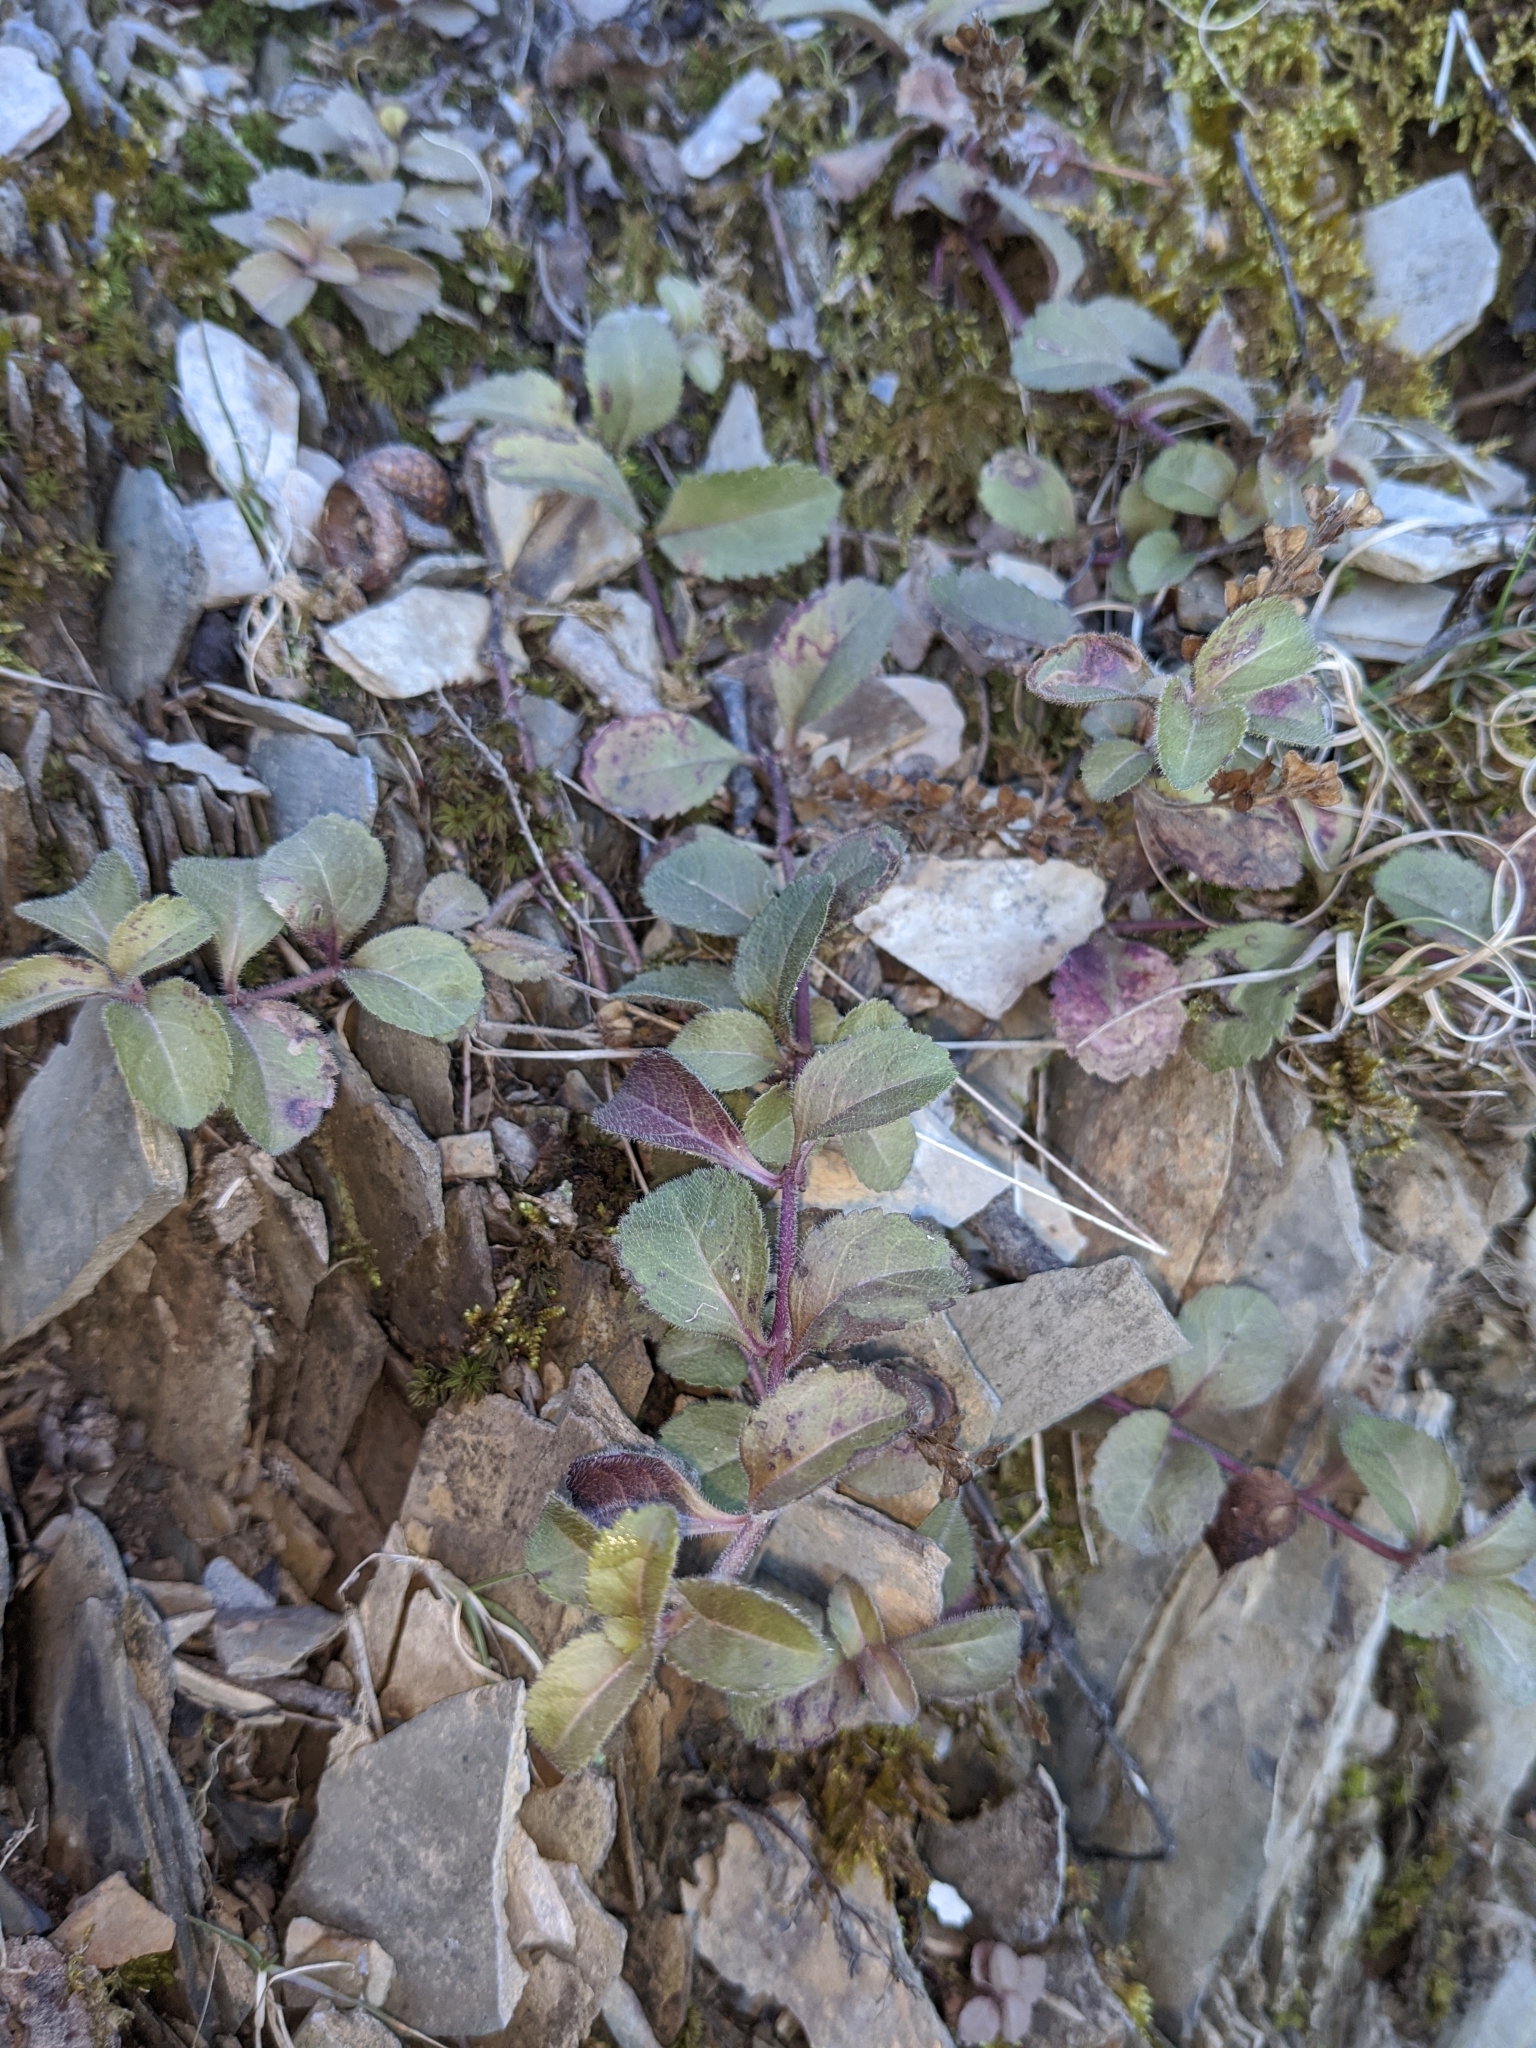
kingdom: Plantae
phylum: Tracheophyta
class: Magnoliopsida
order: Lamiales
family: Plantaginaceae
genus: Veronica
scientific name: Veronica officinalis
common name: Common speedwell
